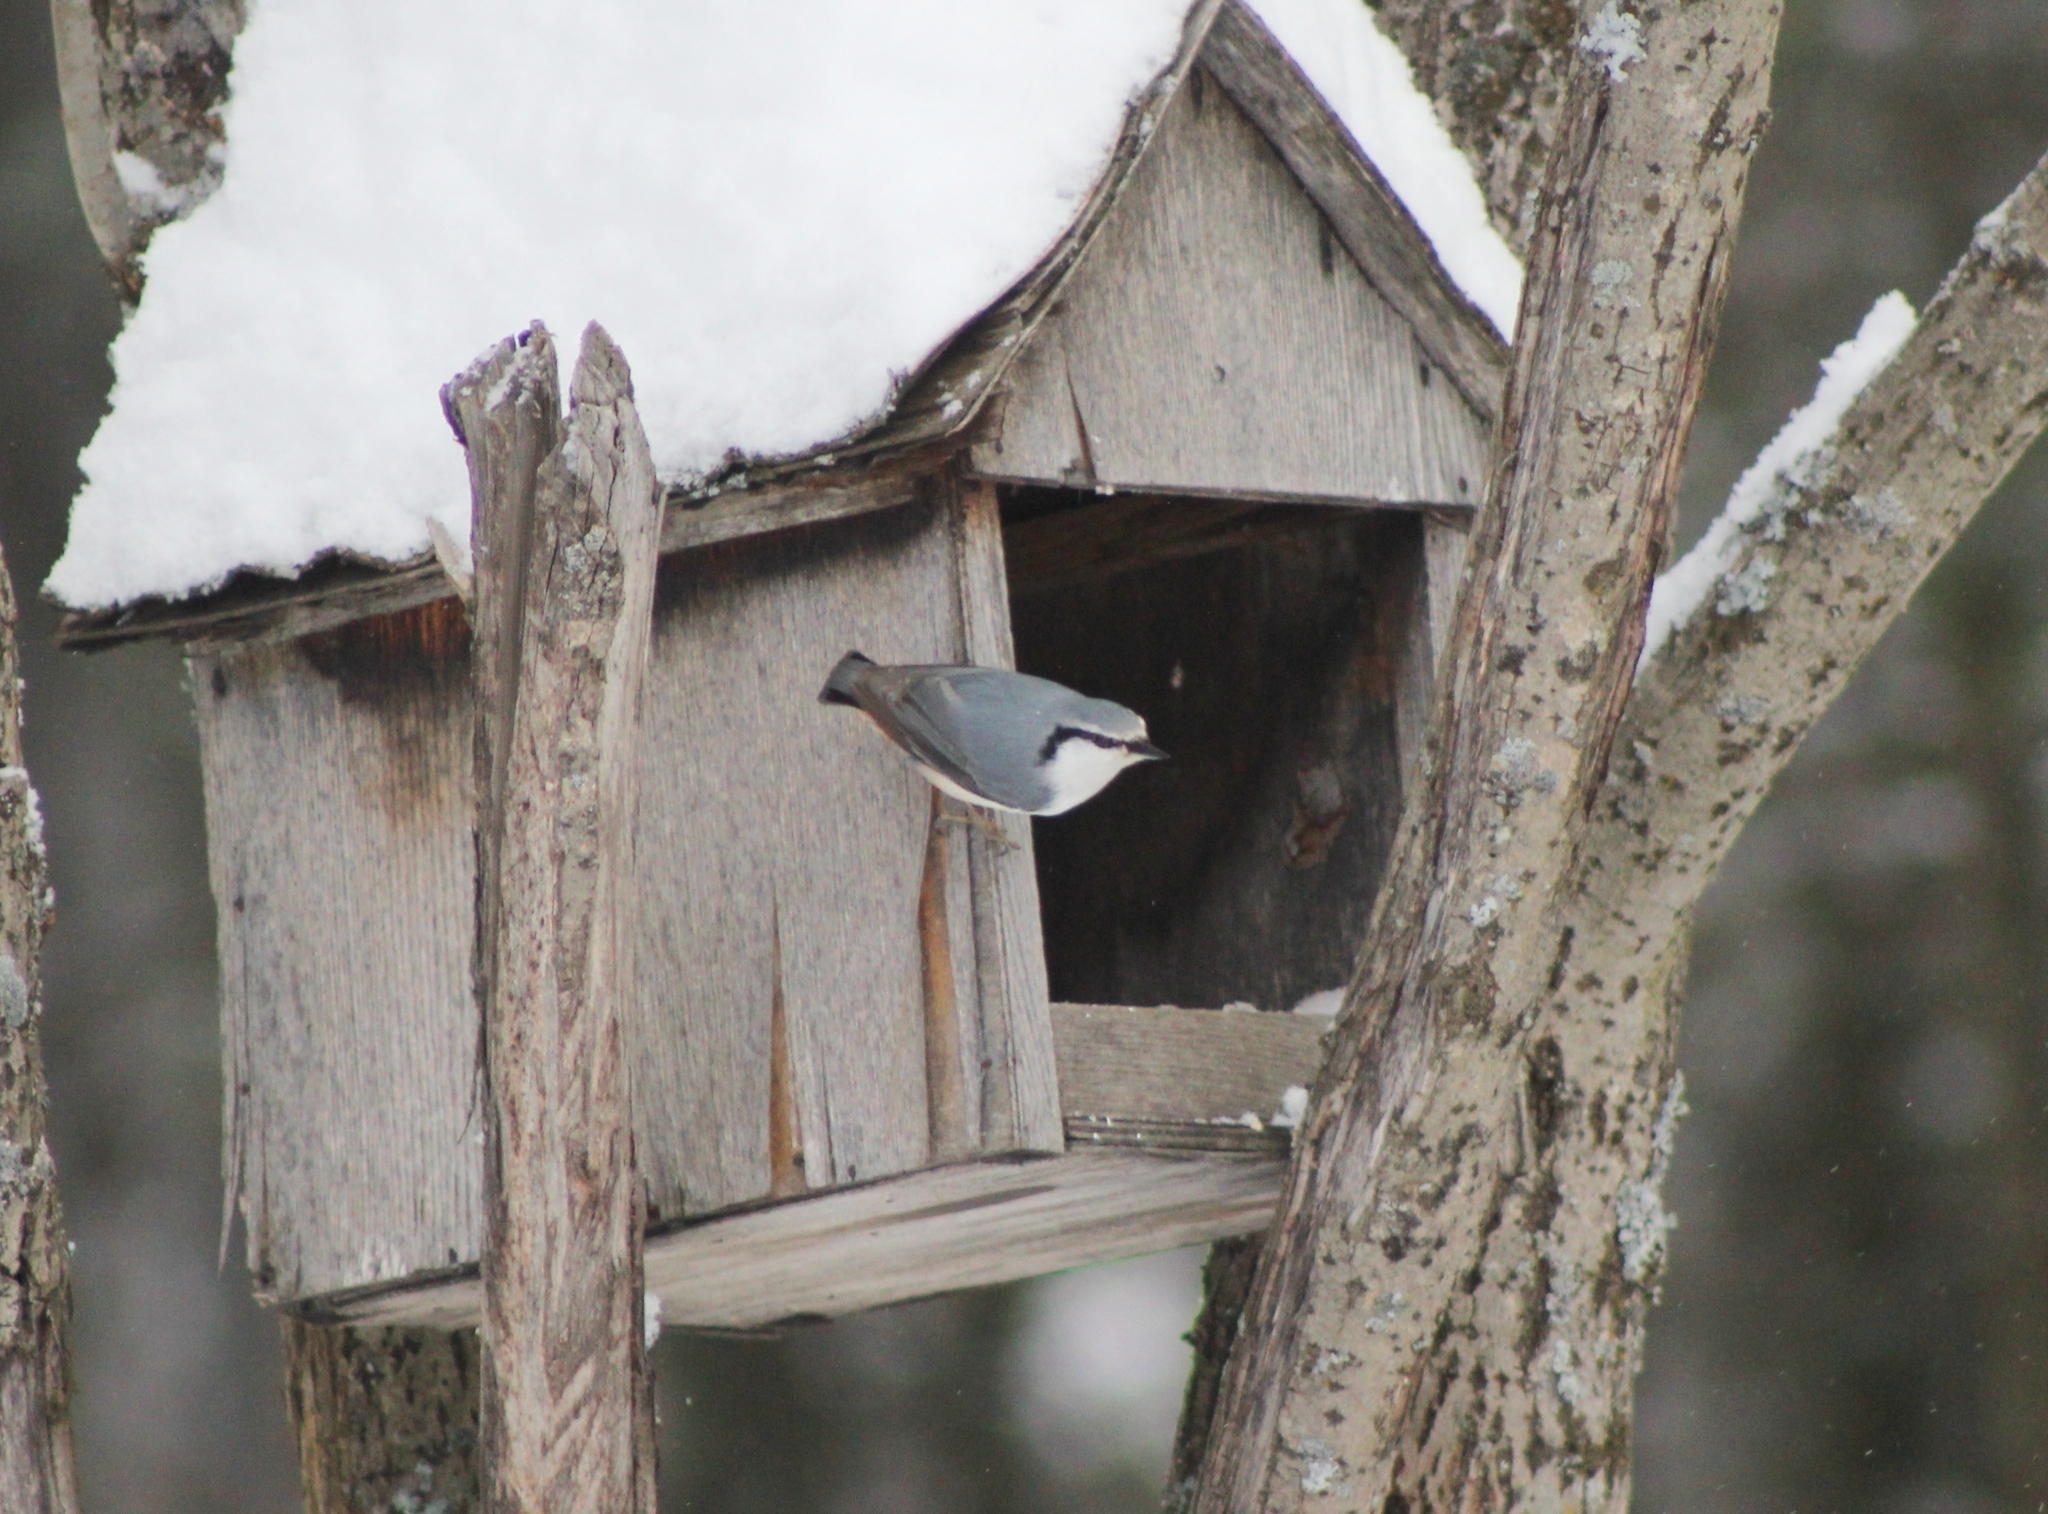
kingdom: Animalia
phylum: Chordata
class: Aves
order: Passeriformes
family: Sittidae
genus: Sitta
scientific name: Sitta europaea
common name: Eurasian nuthatch
